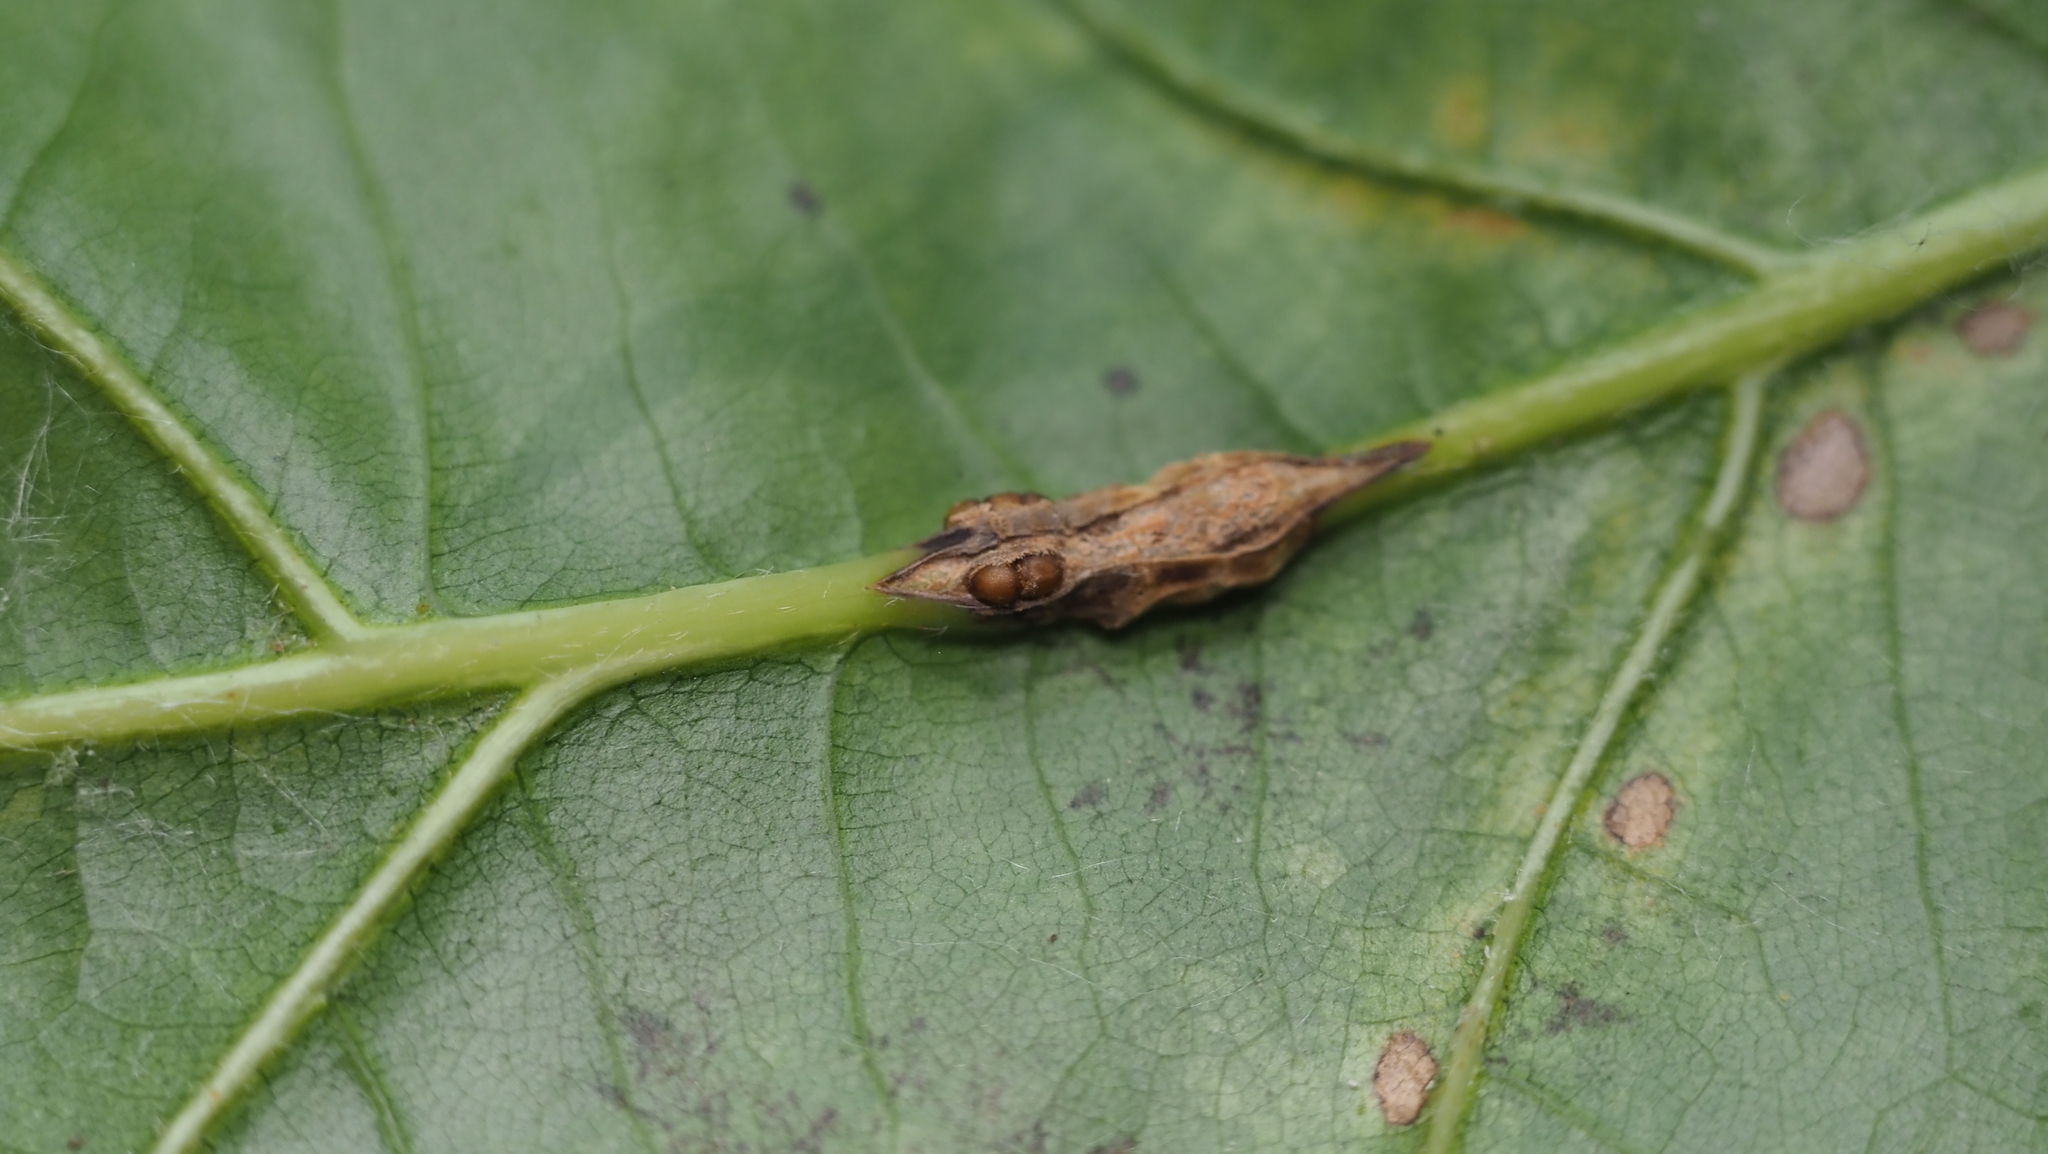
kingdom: Animalia
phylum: Arthropoda
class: Insecta
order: Hymenoptera
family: Cynipidae
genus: Kokkocynips
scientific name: Kokkocynips decidua
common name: Oak wheat gall
